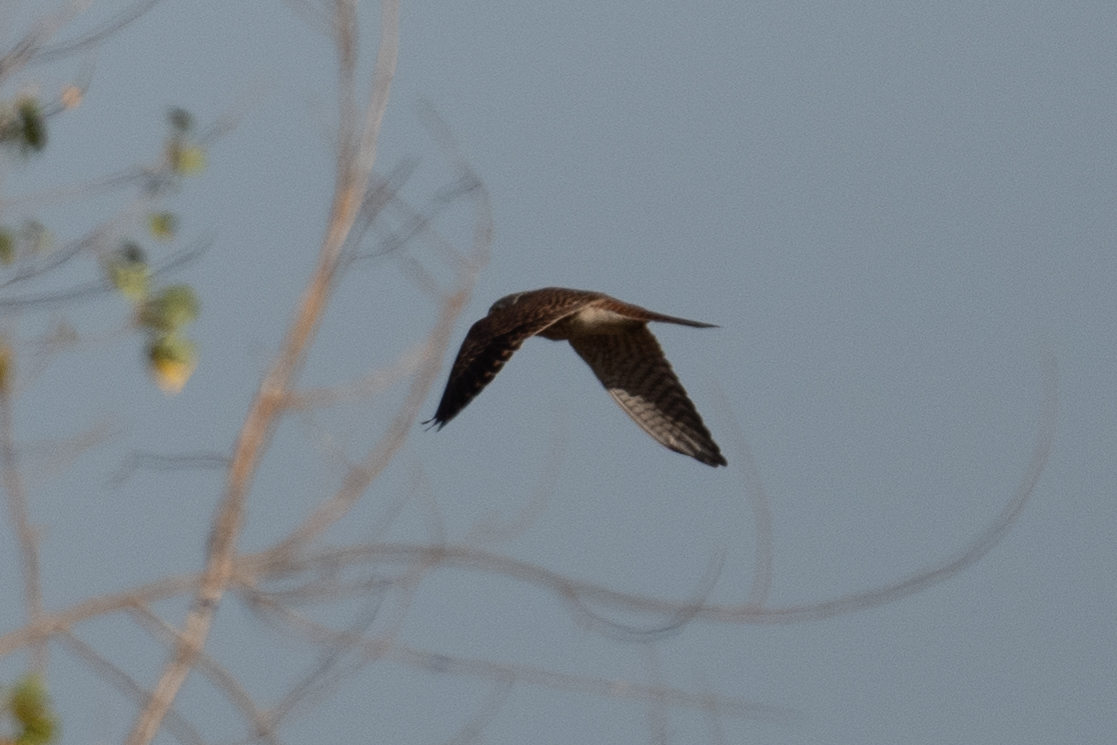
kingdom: Animalia
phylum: Chordata
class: Aves
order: Falconiformes
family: Falconidae
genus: Falco
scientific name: Falco sparverius
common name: American kestrel
